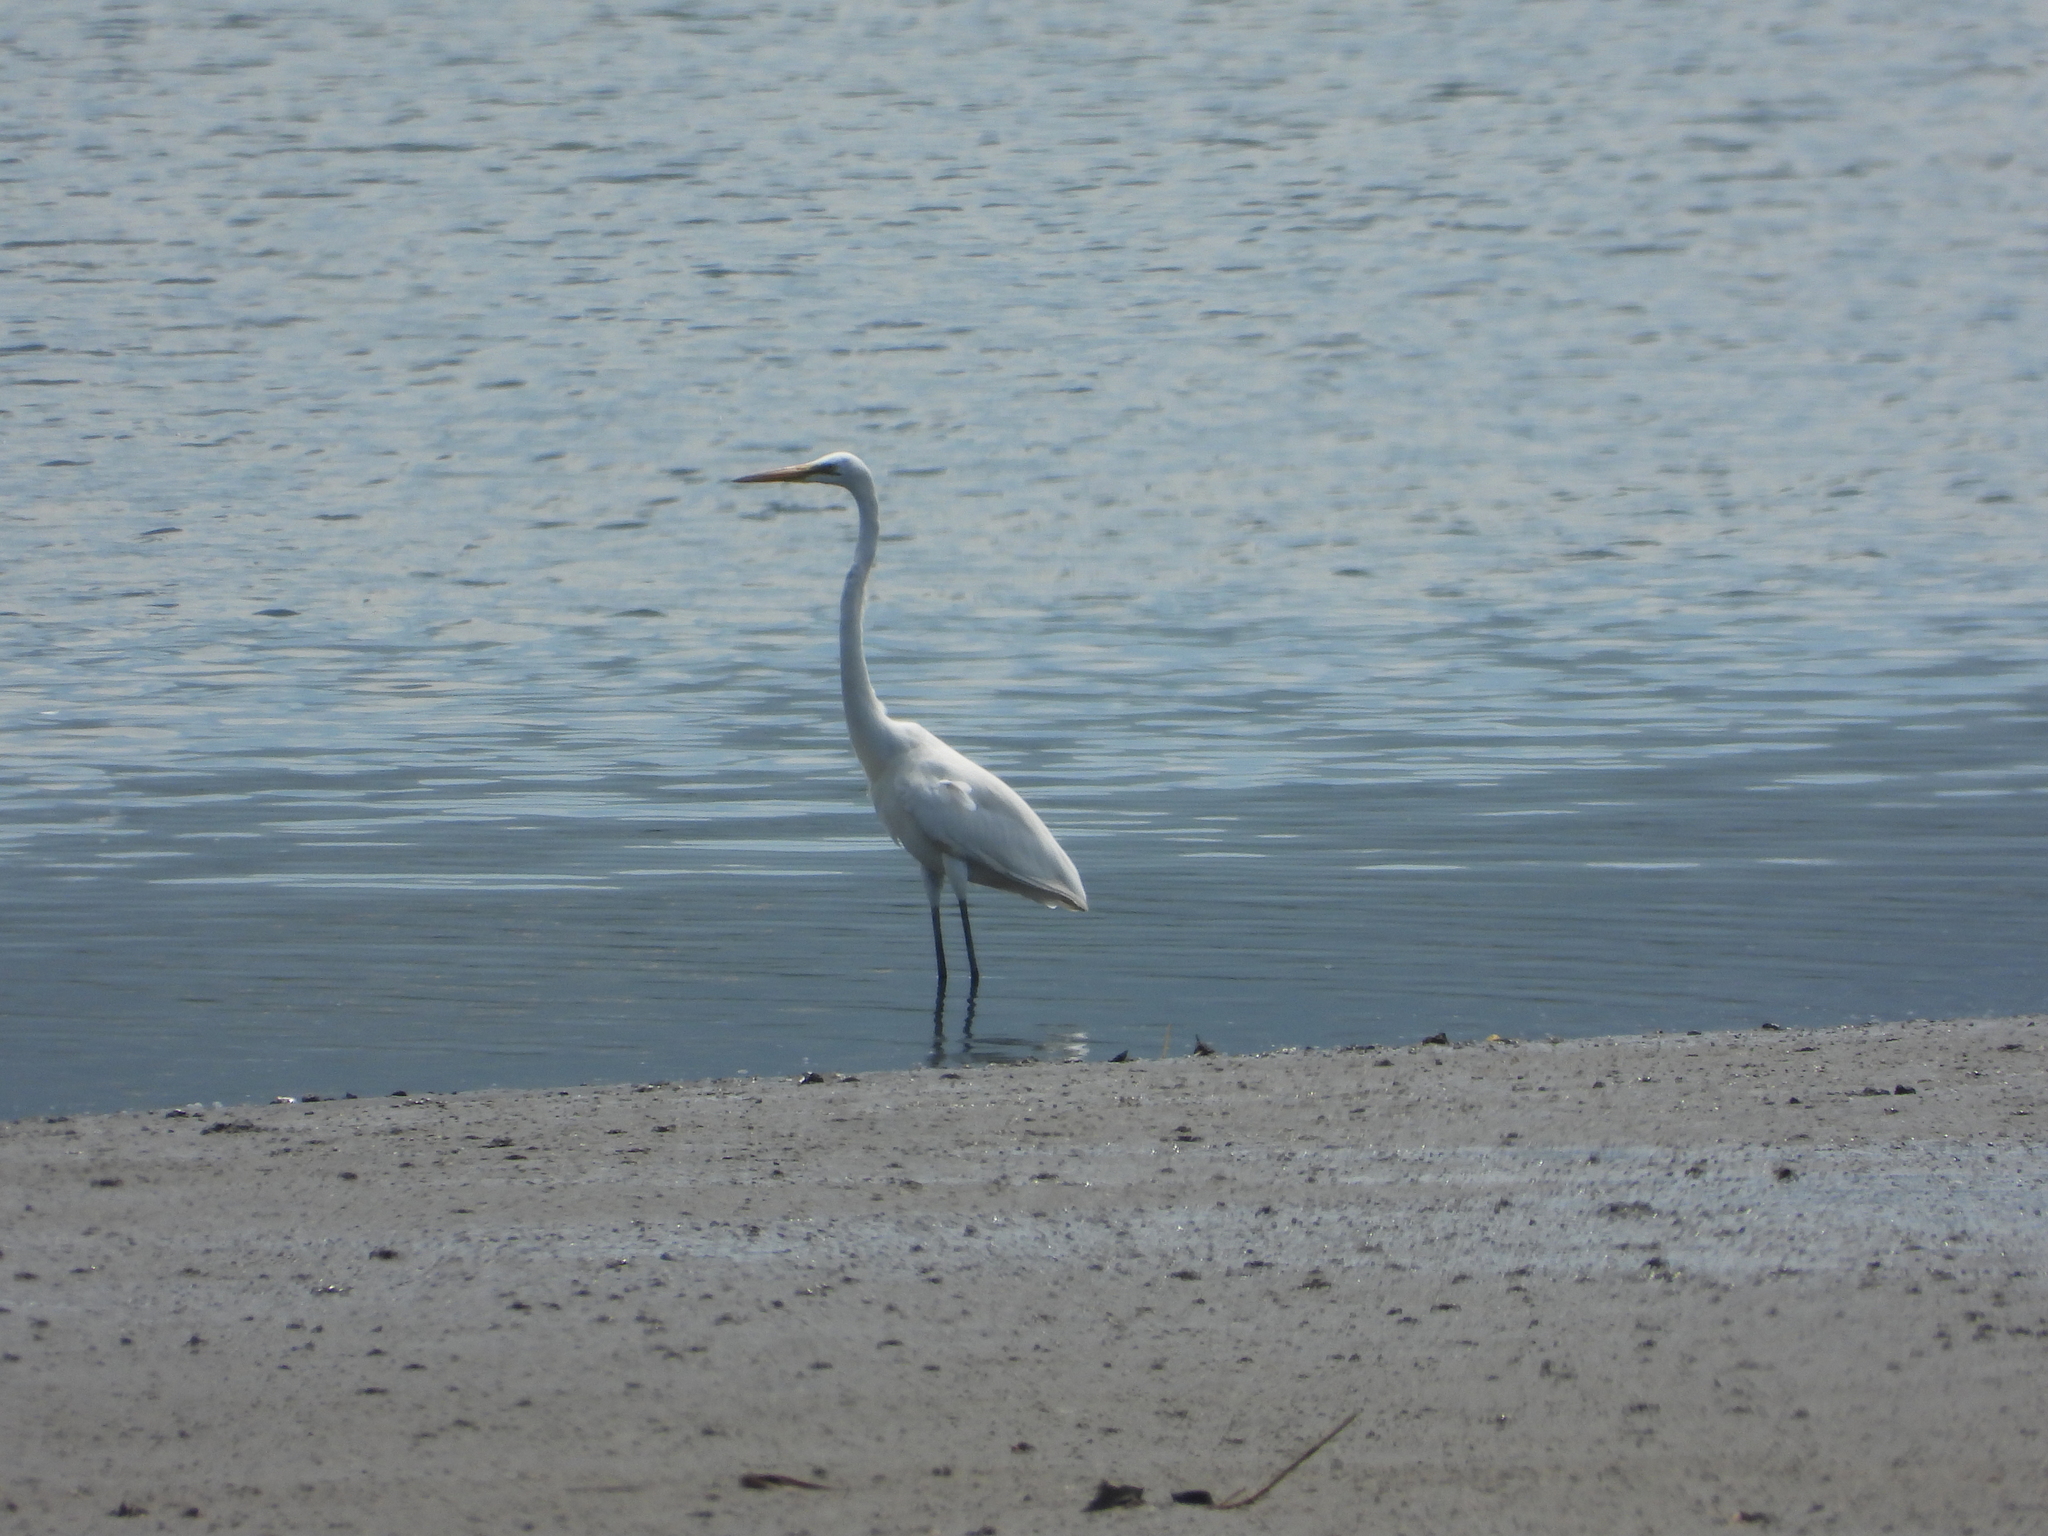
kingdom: Animalia
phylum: Chordata
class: Aves
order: Pelecaniformes
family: Ardeidae
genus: Ardea
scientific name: Ardea alba
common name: Great egret
